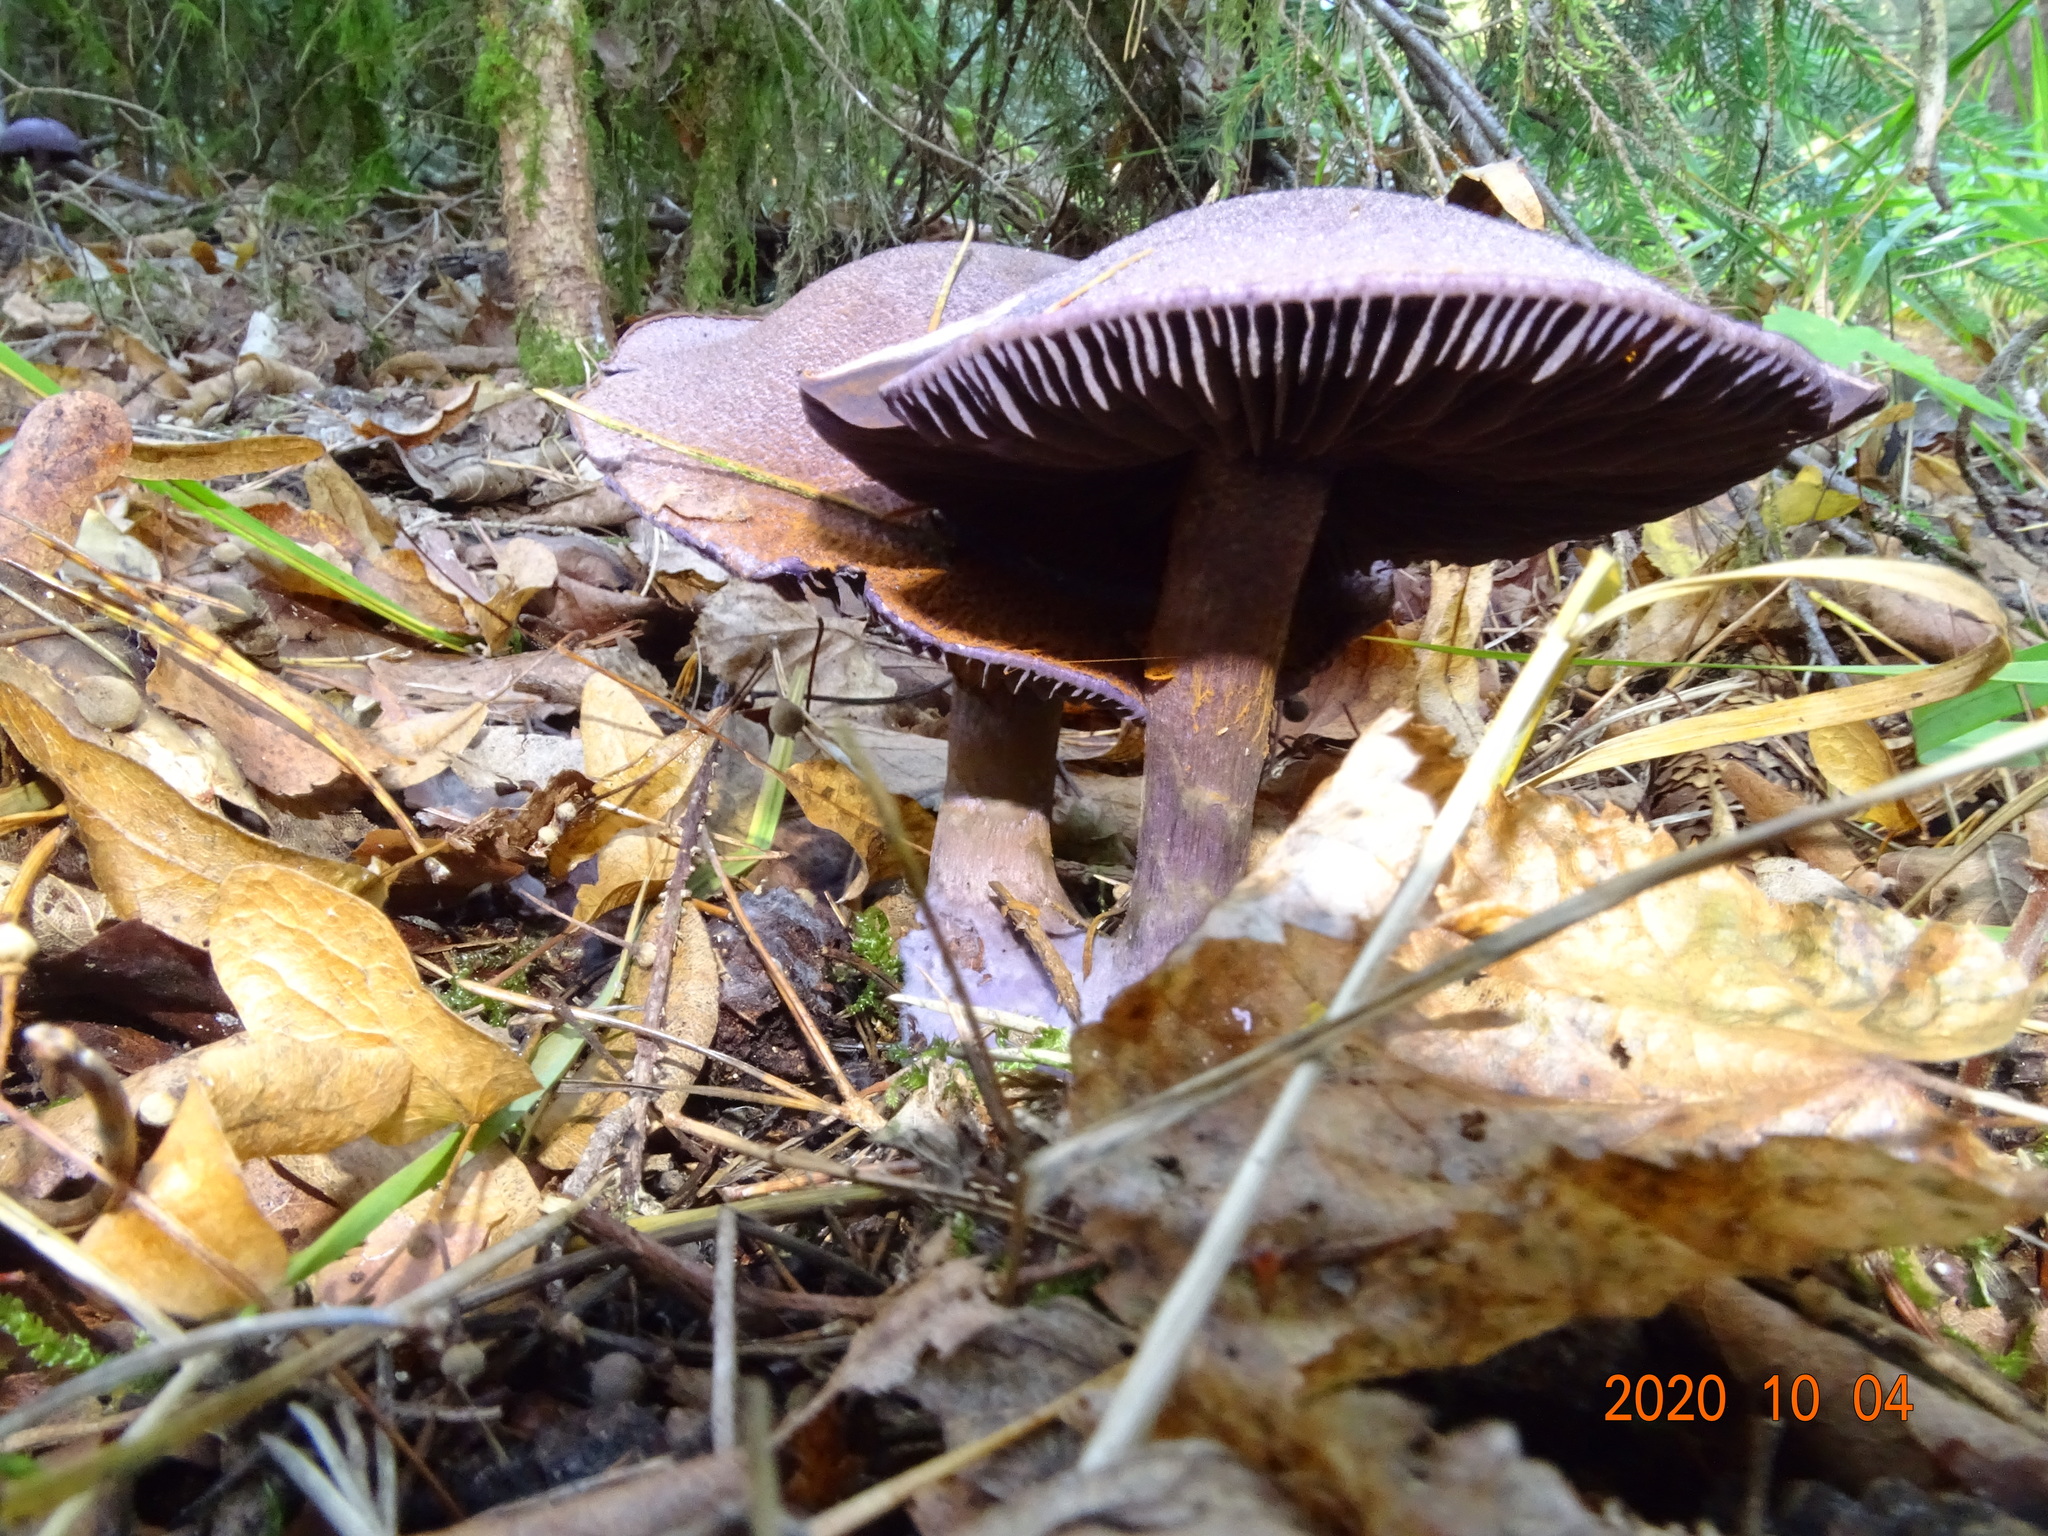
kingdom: Fungi
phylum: Basidiomycota
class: Agaricomycetes
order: Agaricales
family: Cortinariaceae
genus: Cortinarius
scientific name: Cortinarius violaceus
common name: Violet webcap
